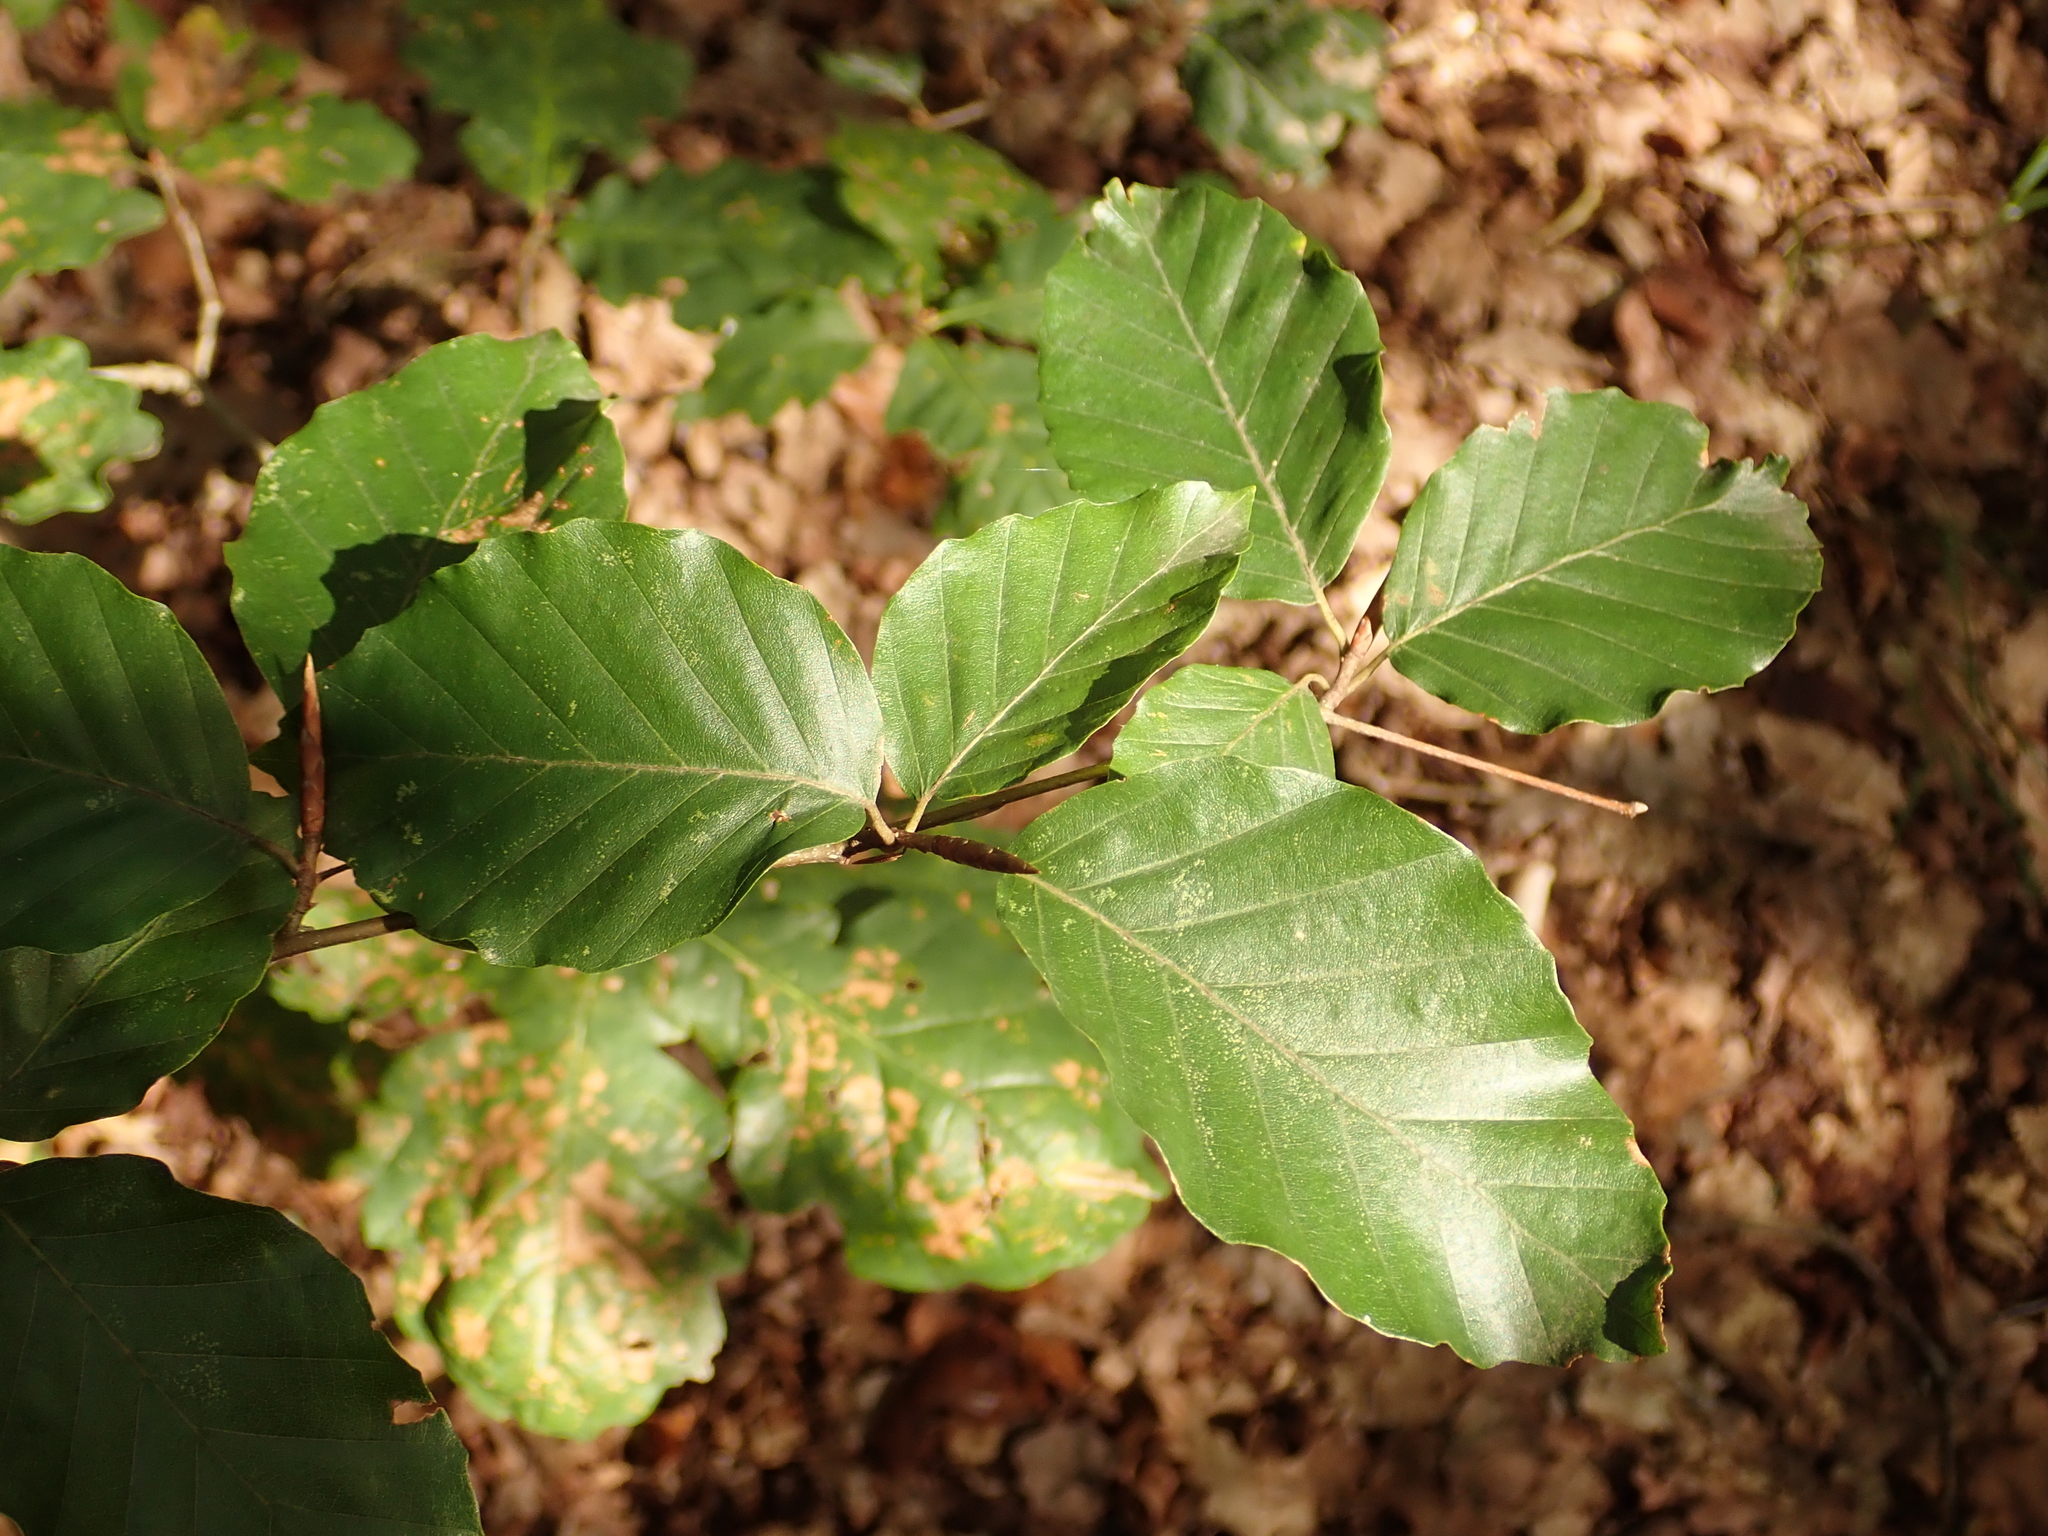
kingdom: Plantae
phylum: Tracheophyta
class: Magnoliopsida
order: Fagales
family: Fagaceae
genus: Fagus
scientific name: Fagus sylvatica
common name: Beech
